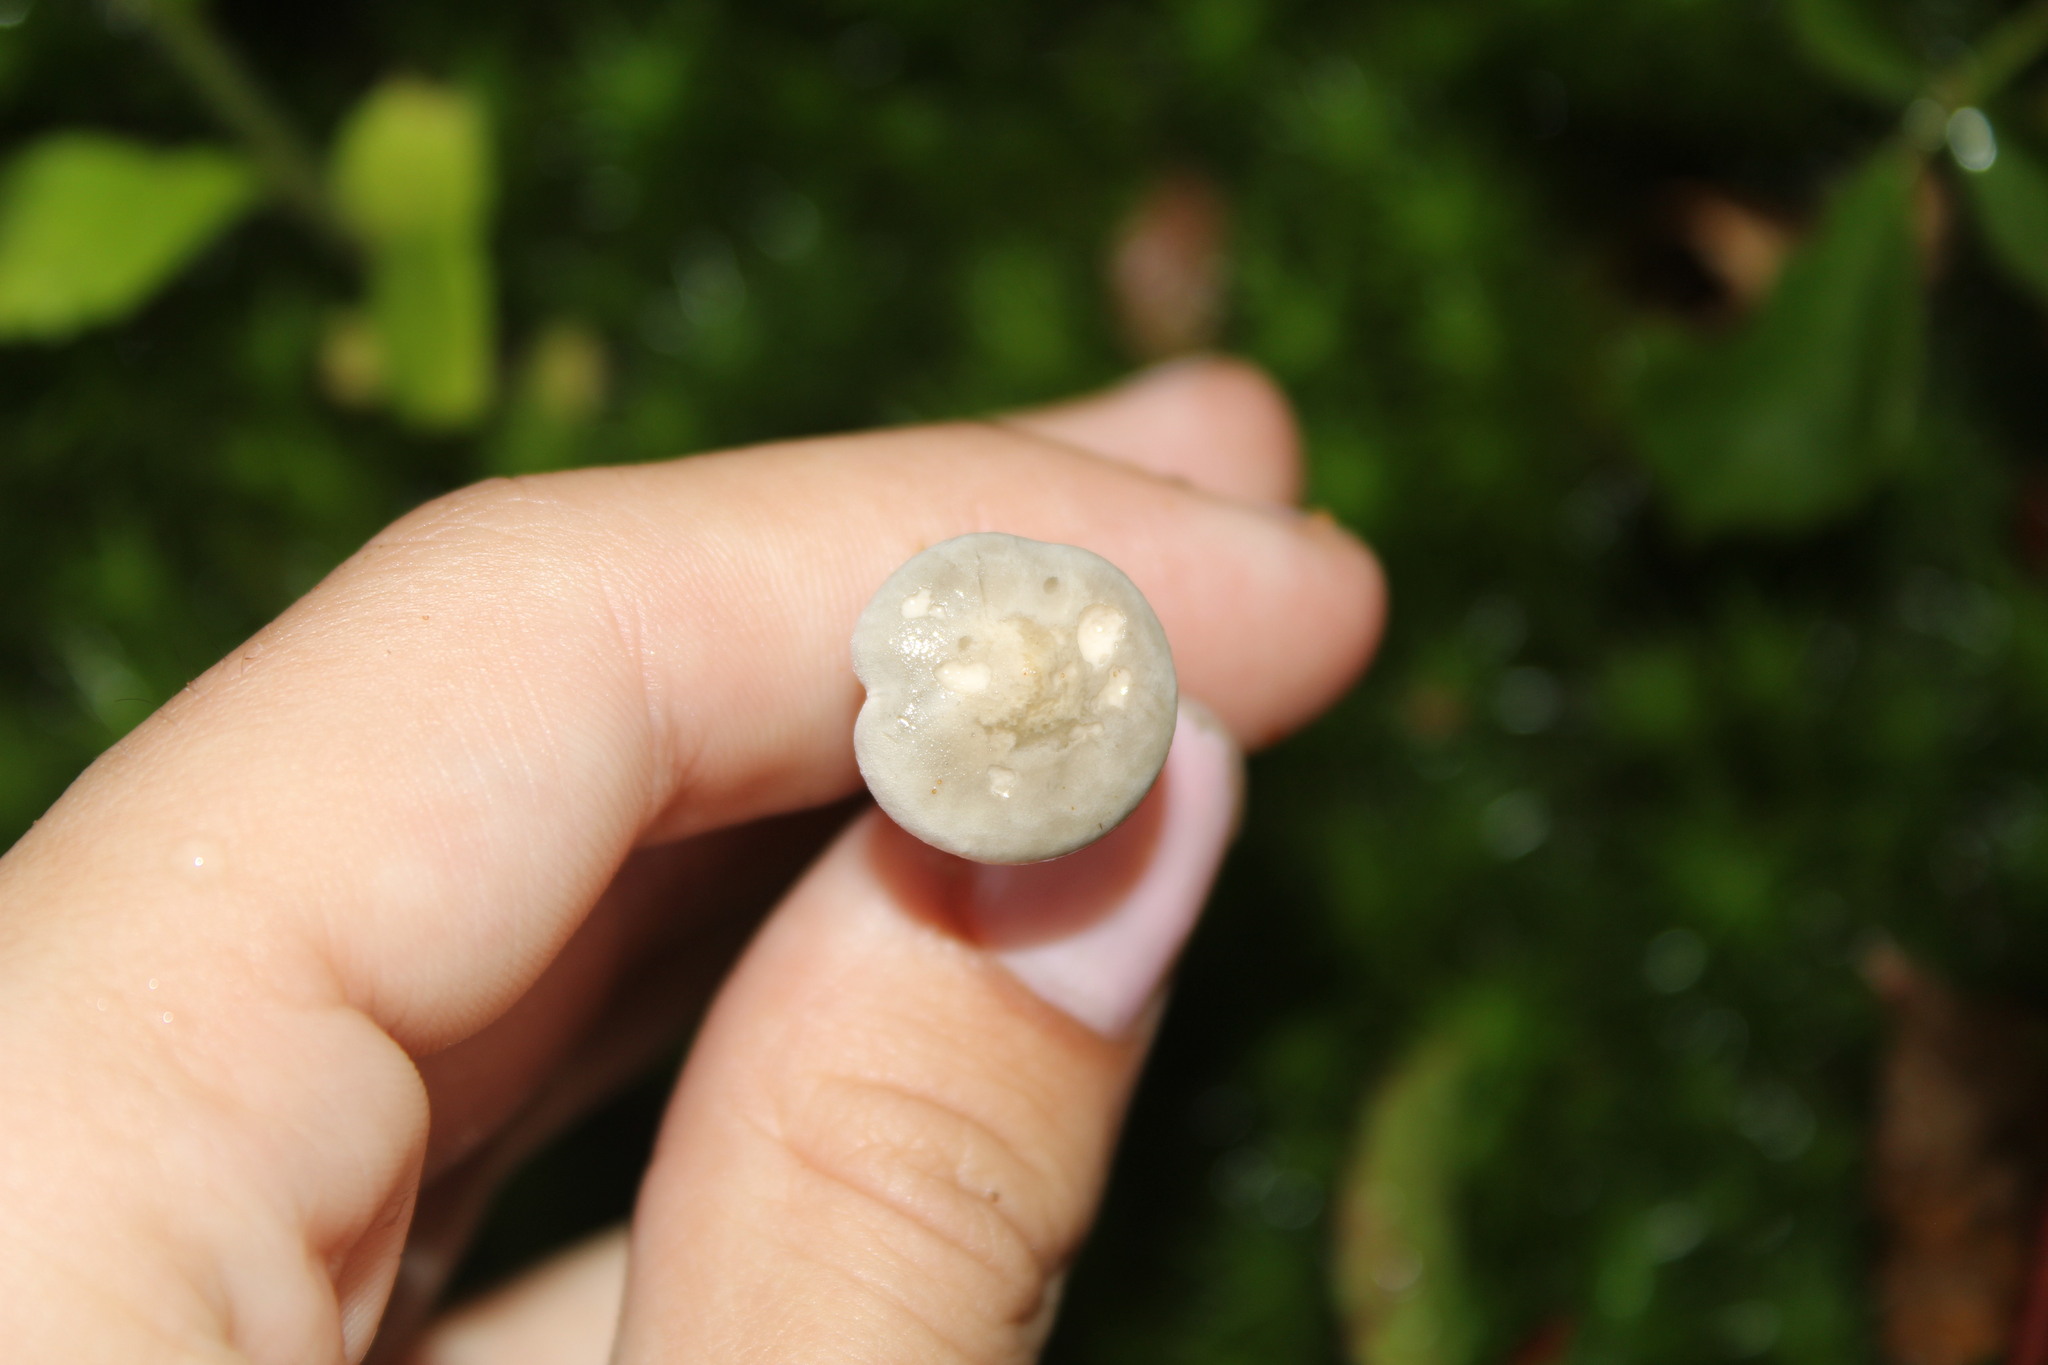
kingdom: Fungi
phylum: Basidiomycota
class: Agaricomycetes
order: Agaricales
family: Hygrophoraceae
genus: Cantharellula
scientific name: Cantharellula umbonata
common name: The humpback
